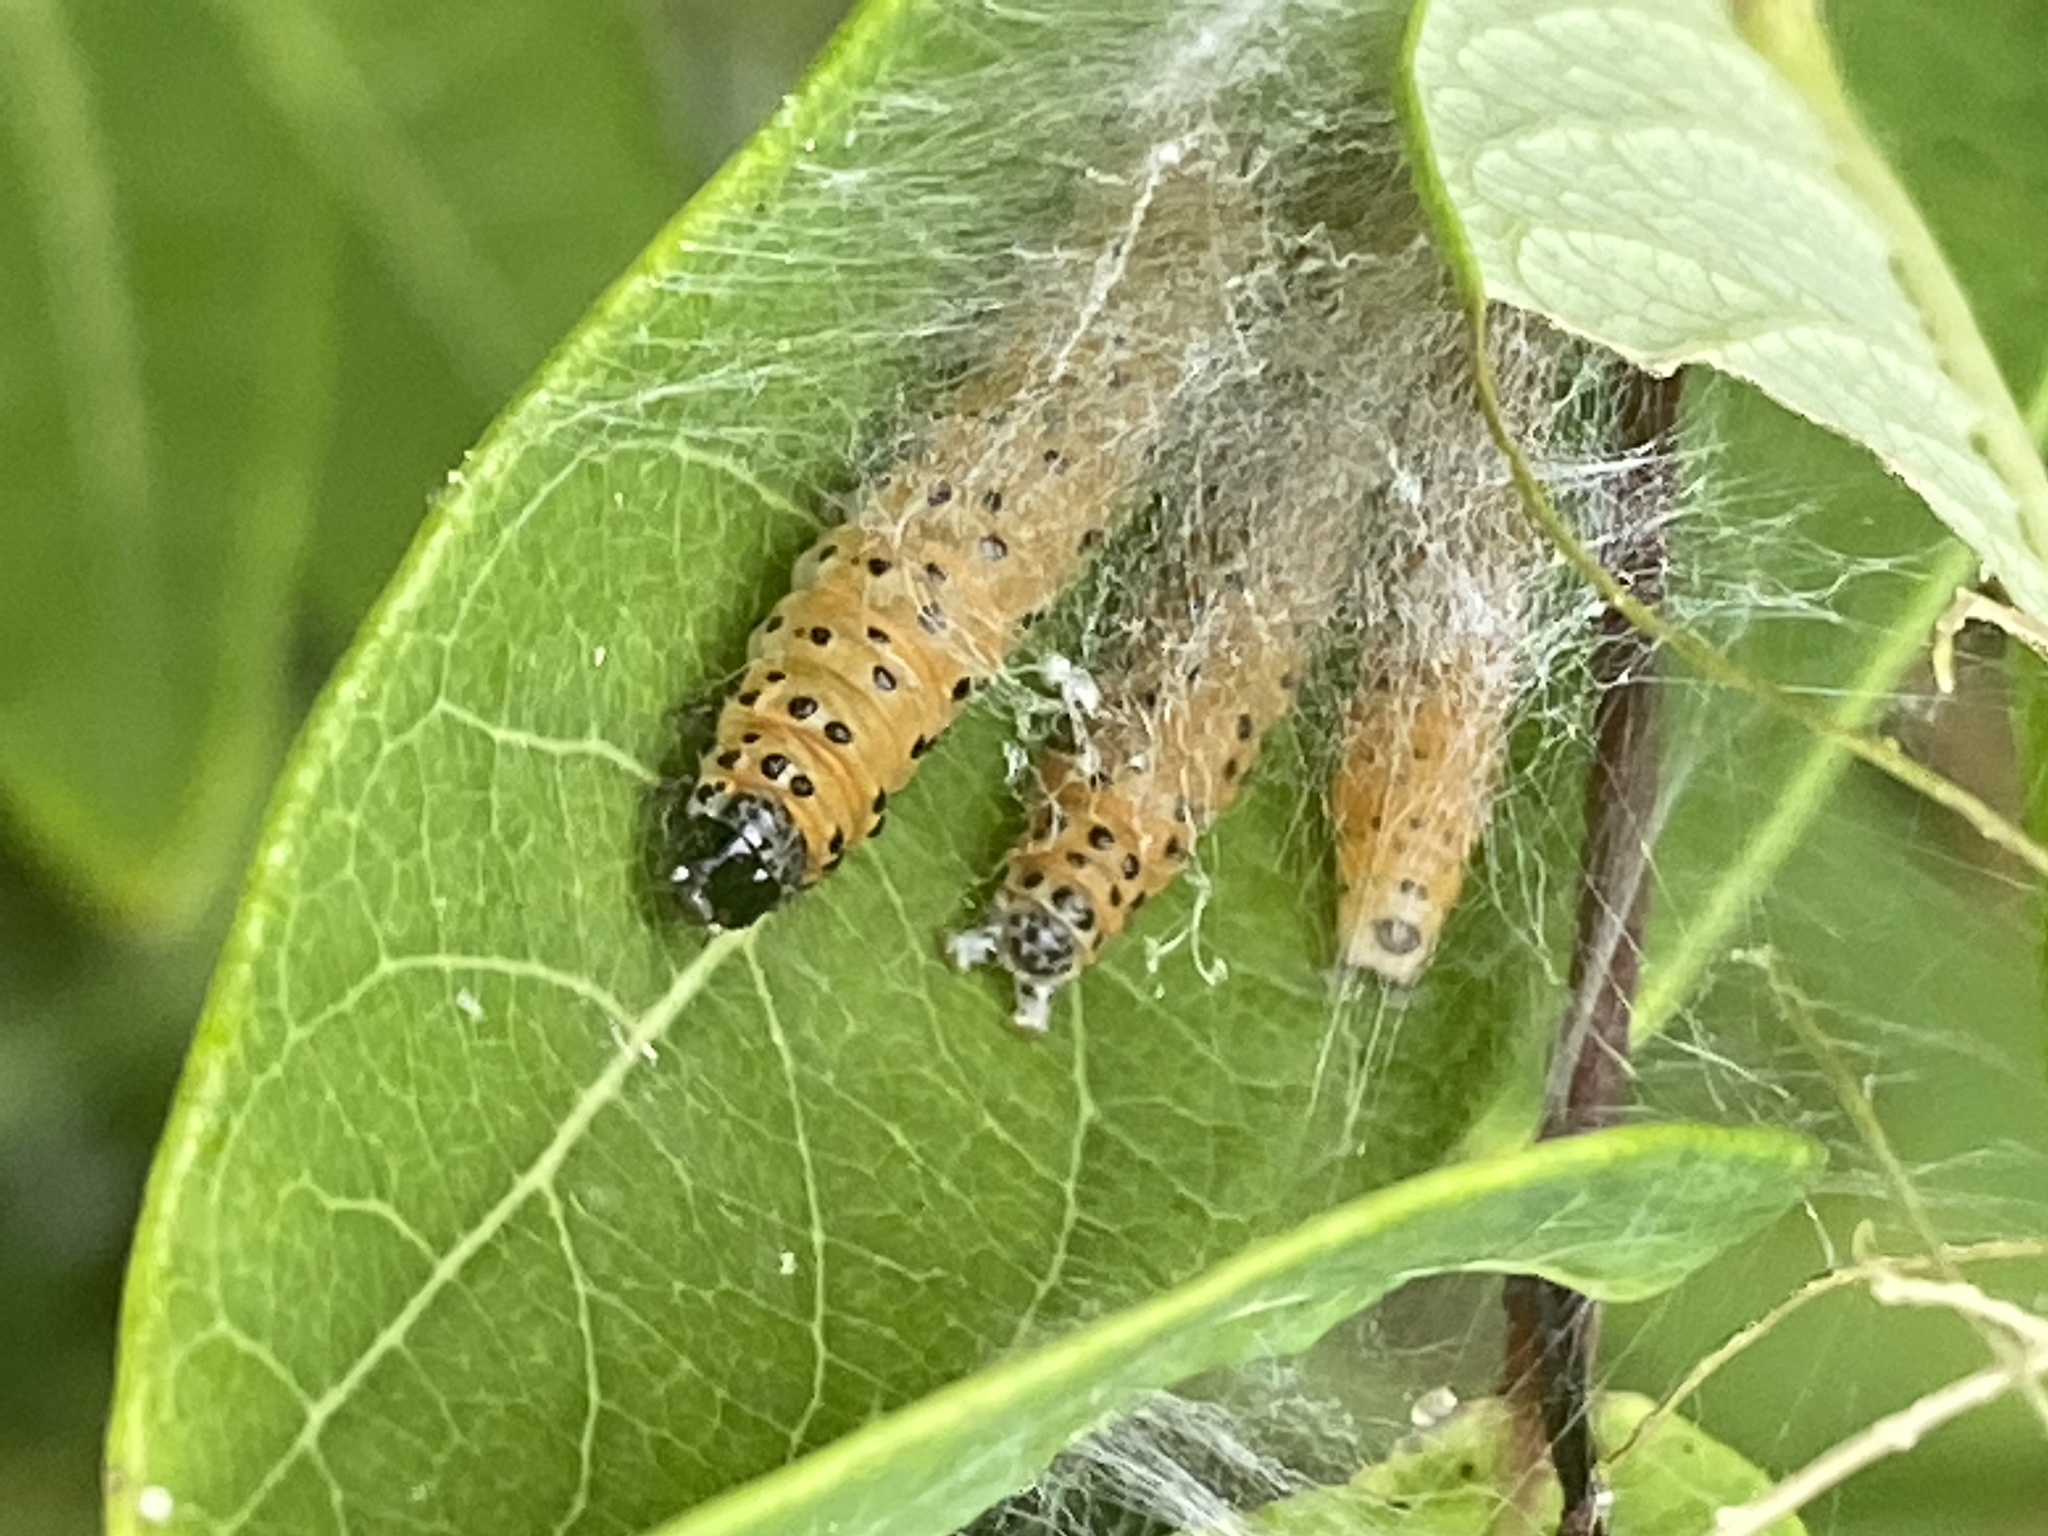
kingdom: Animalia
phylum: Arthropoda
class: Insecta
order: Lepidoptera
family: Crambidae
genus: Saucrobotys
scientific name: Saucrobotys futilalis
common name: Dogbane saucrobotys moth
